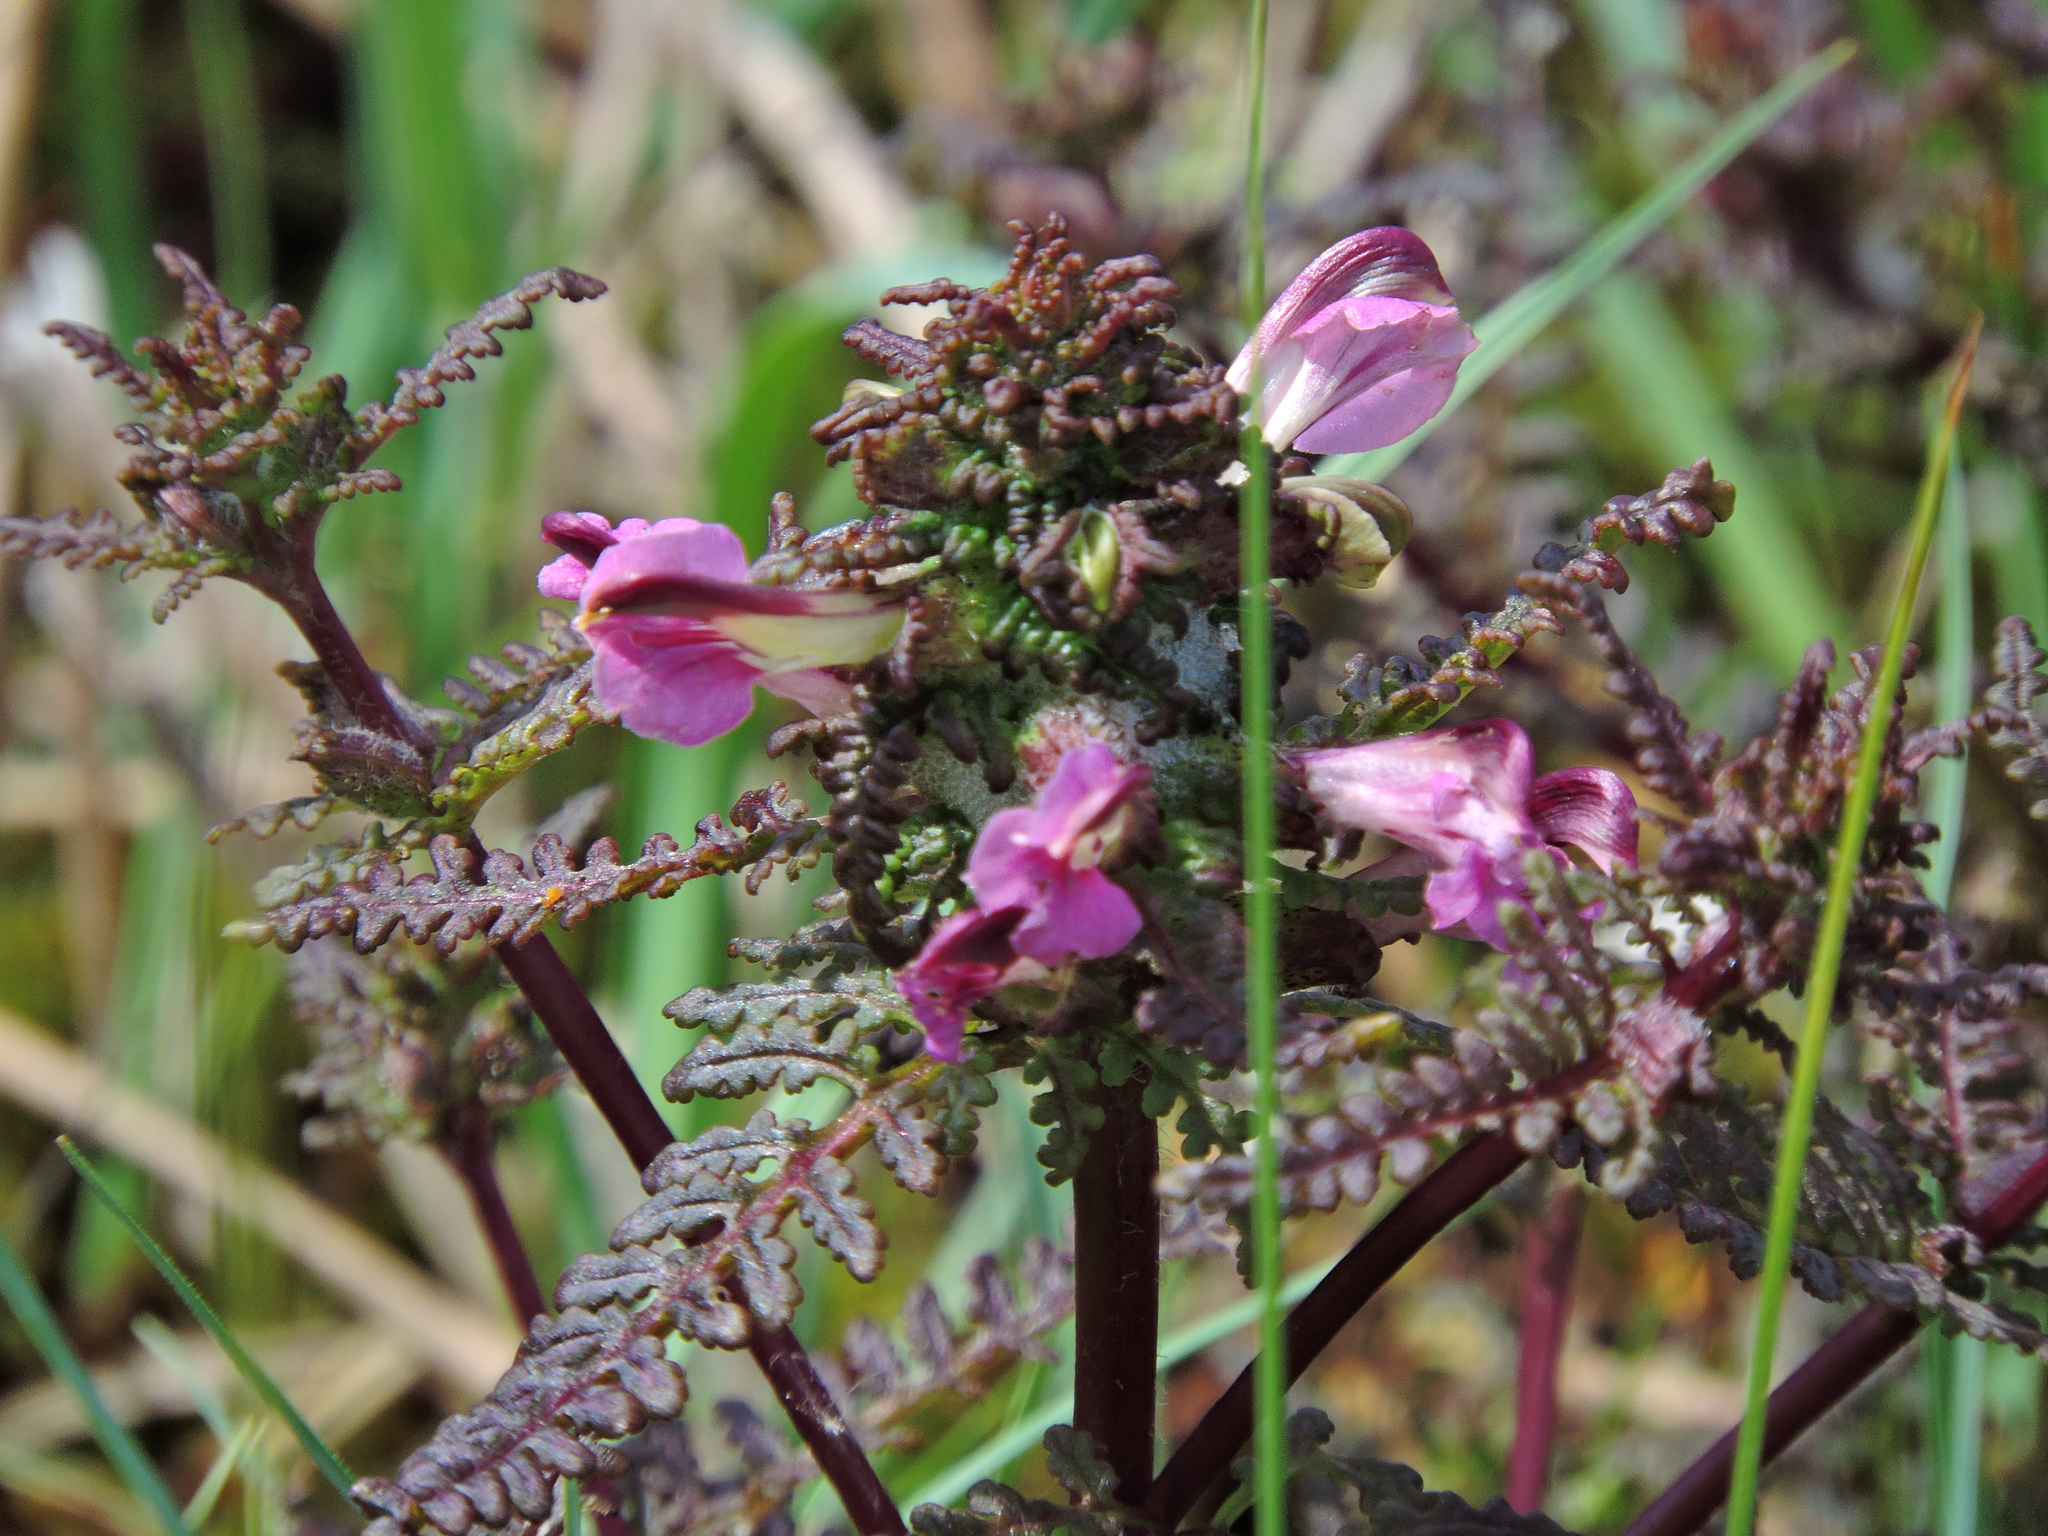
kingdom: Plantae
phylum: Tracheophyta
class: Magnoliopsida
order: Lamiales
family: Orobanchaceae
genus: Pedicularis
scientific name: Pedicularis palustris
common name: Marsh lousewort
